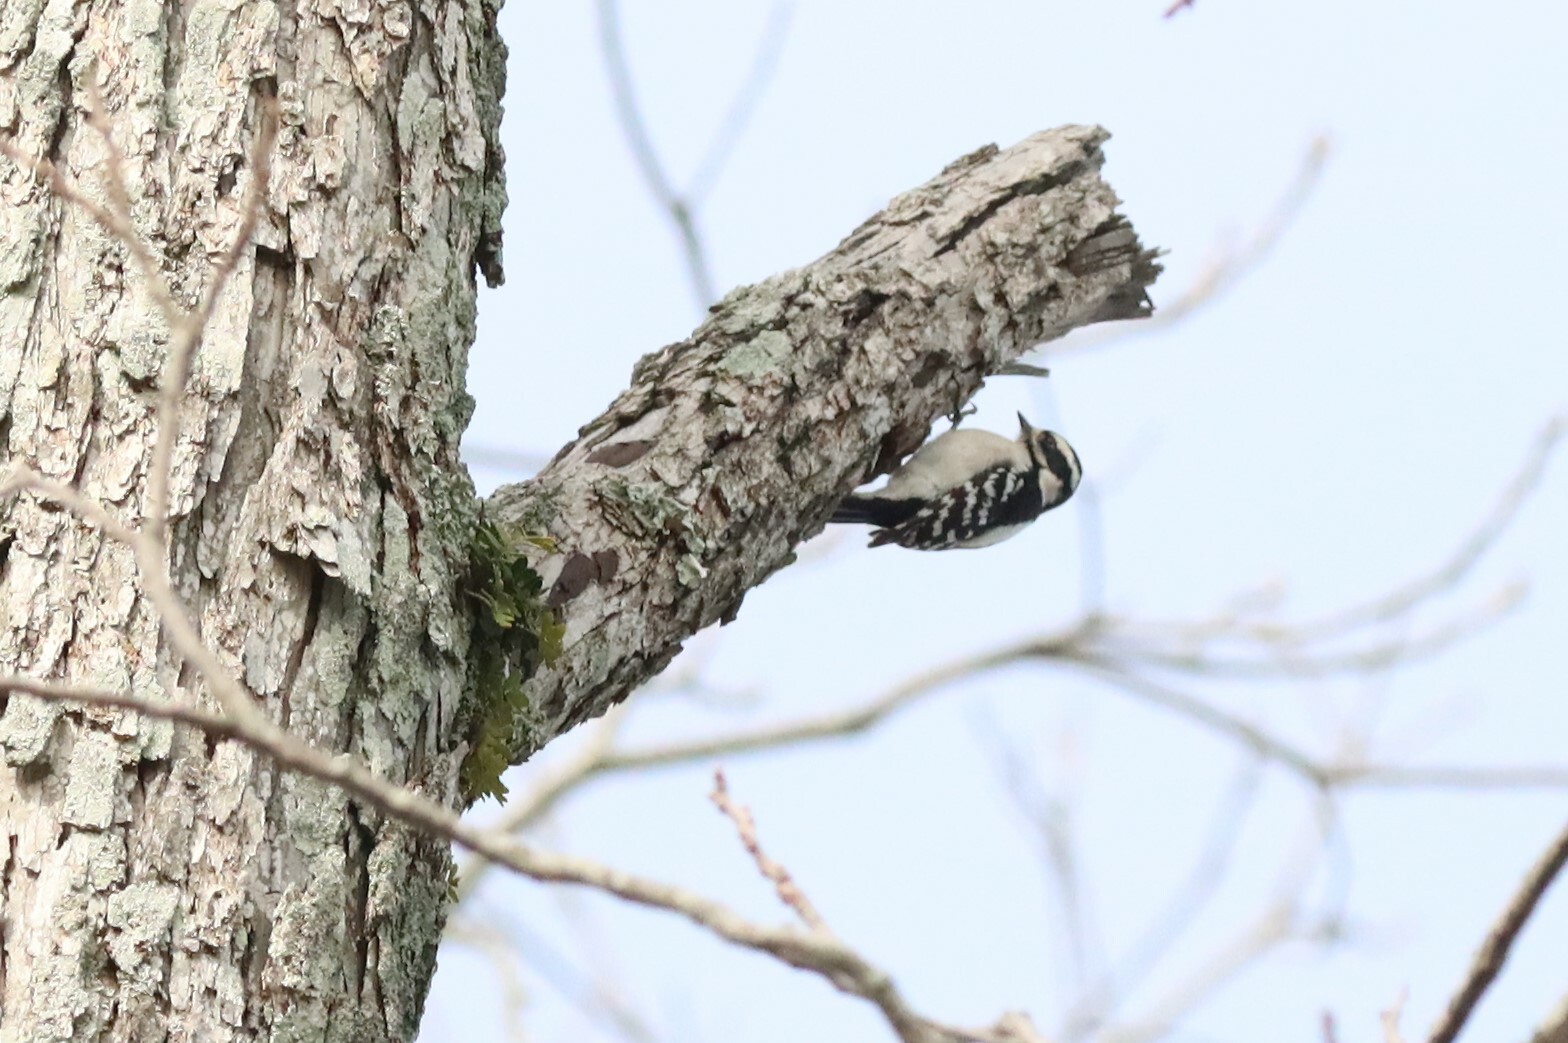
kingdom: Animalia
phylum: Chordata
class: Aves
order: Piciformes
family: Picidae
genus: Dryobates
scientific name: Dryobates pubescens
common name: Downy woodpecker
